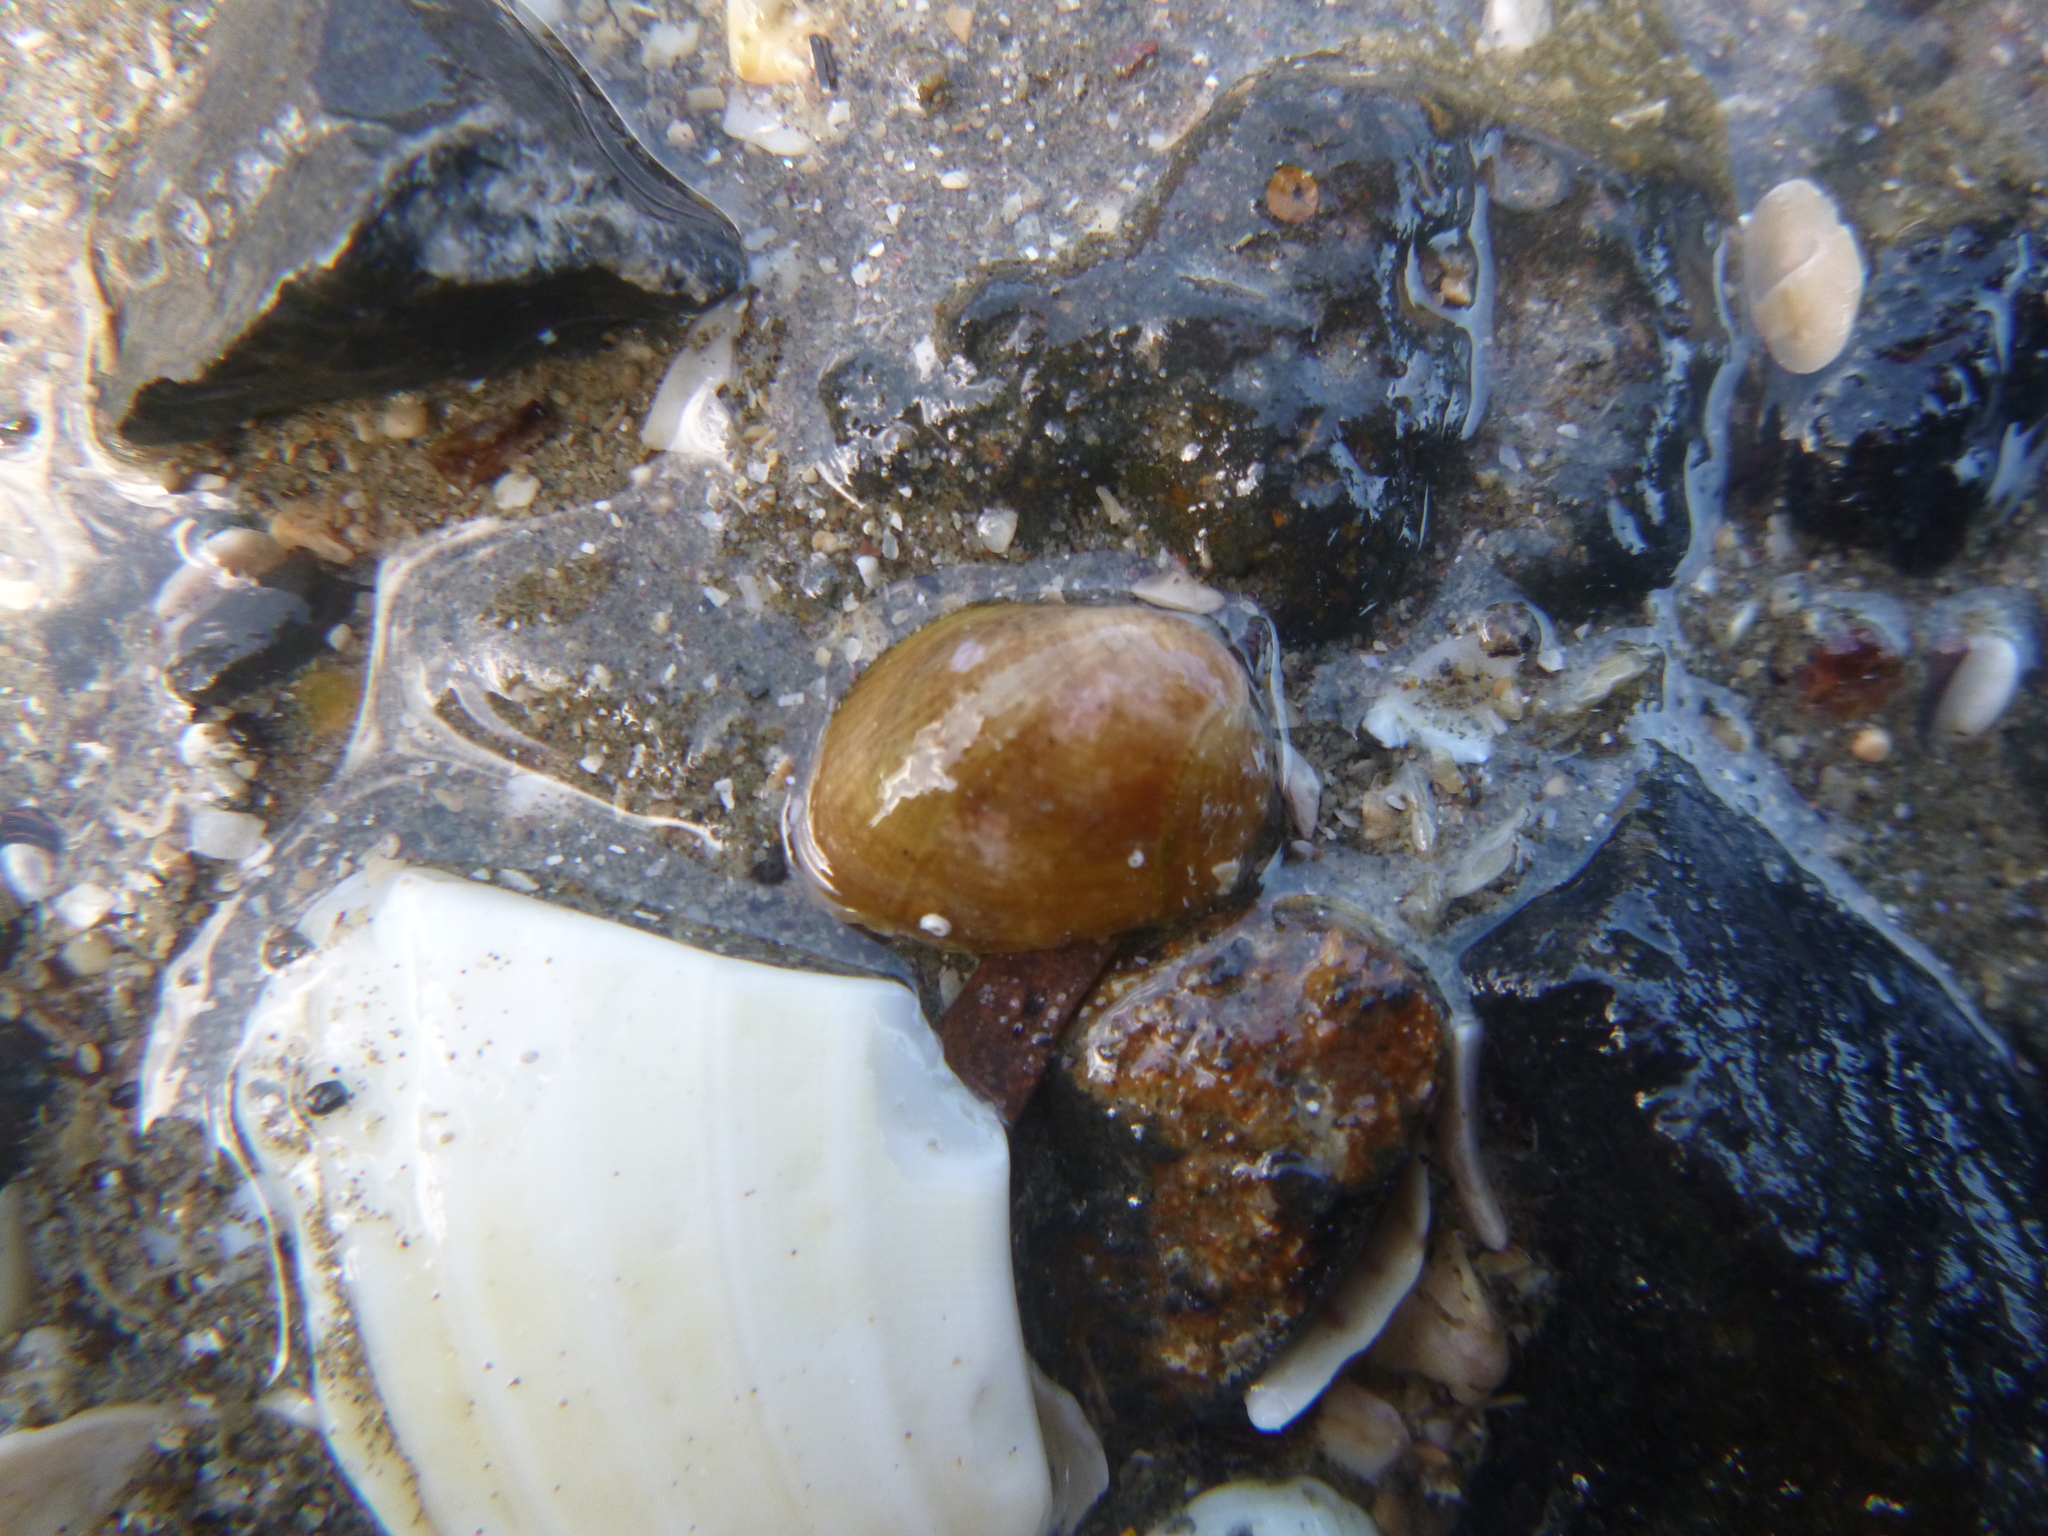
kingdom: Animalia
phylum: Mollusca
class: Bivalvia
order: Mytilida
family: Mytilidae
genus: Musculus
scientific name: Musculus impactus
